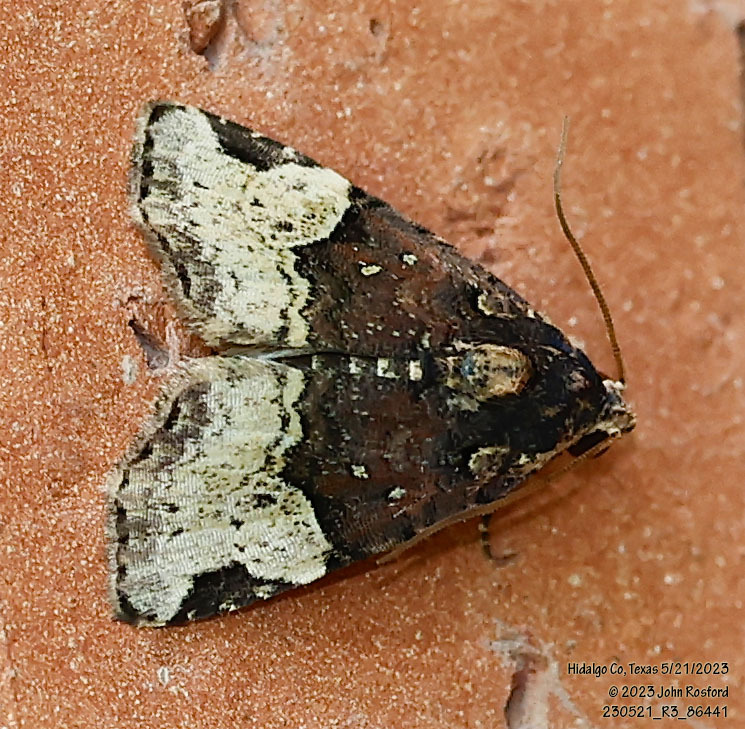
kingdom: Animalia
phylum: Arthropoda
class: Insecta
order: Lepidoptera
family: Noctuidae
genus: Ozarba
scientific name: Ozarba catilina
